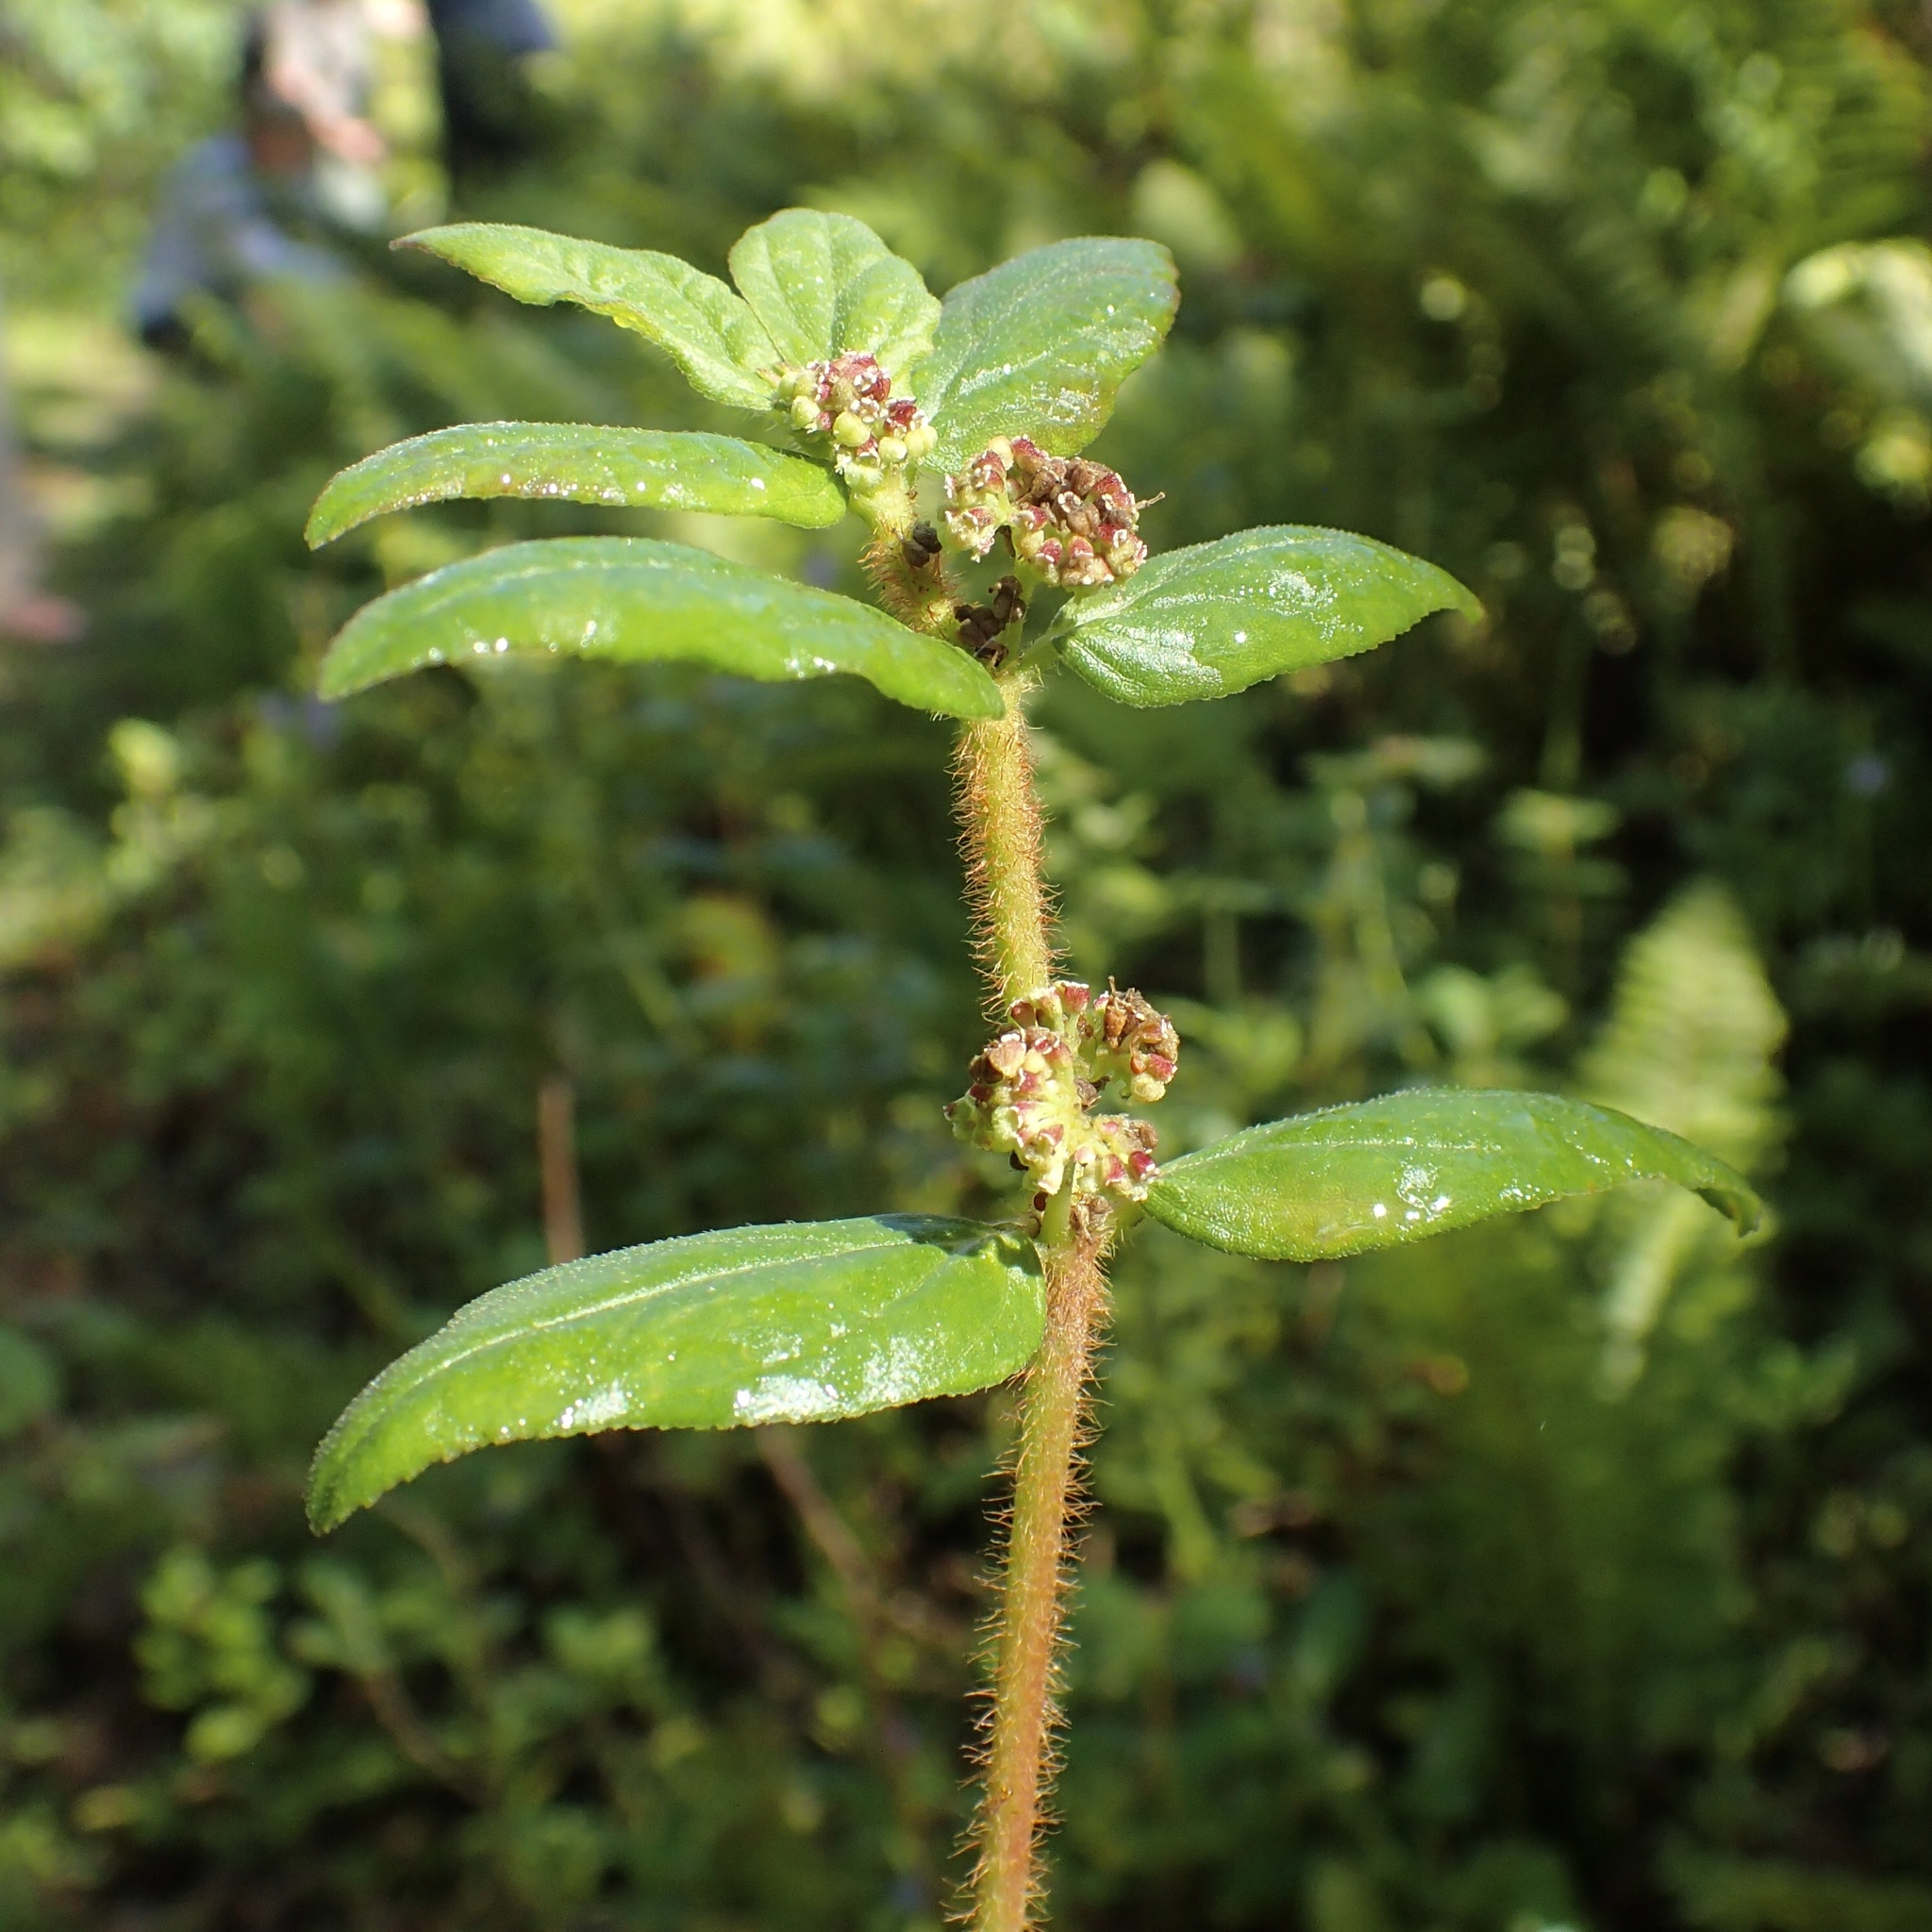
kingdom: Plantae
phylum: Tracheophyta
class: Magnoliopsida
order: Malpighiales
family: Euphorbiaceae
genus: Euphorbia
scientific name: Euphorbia hirta
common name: Pillpod sandmat
